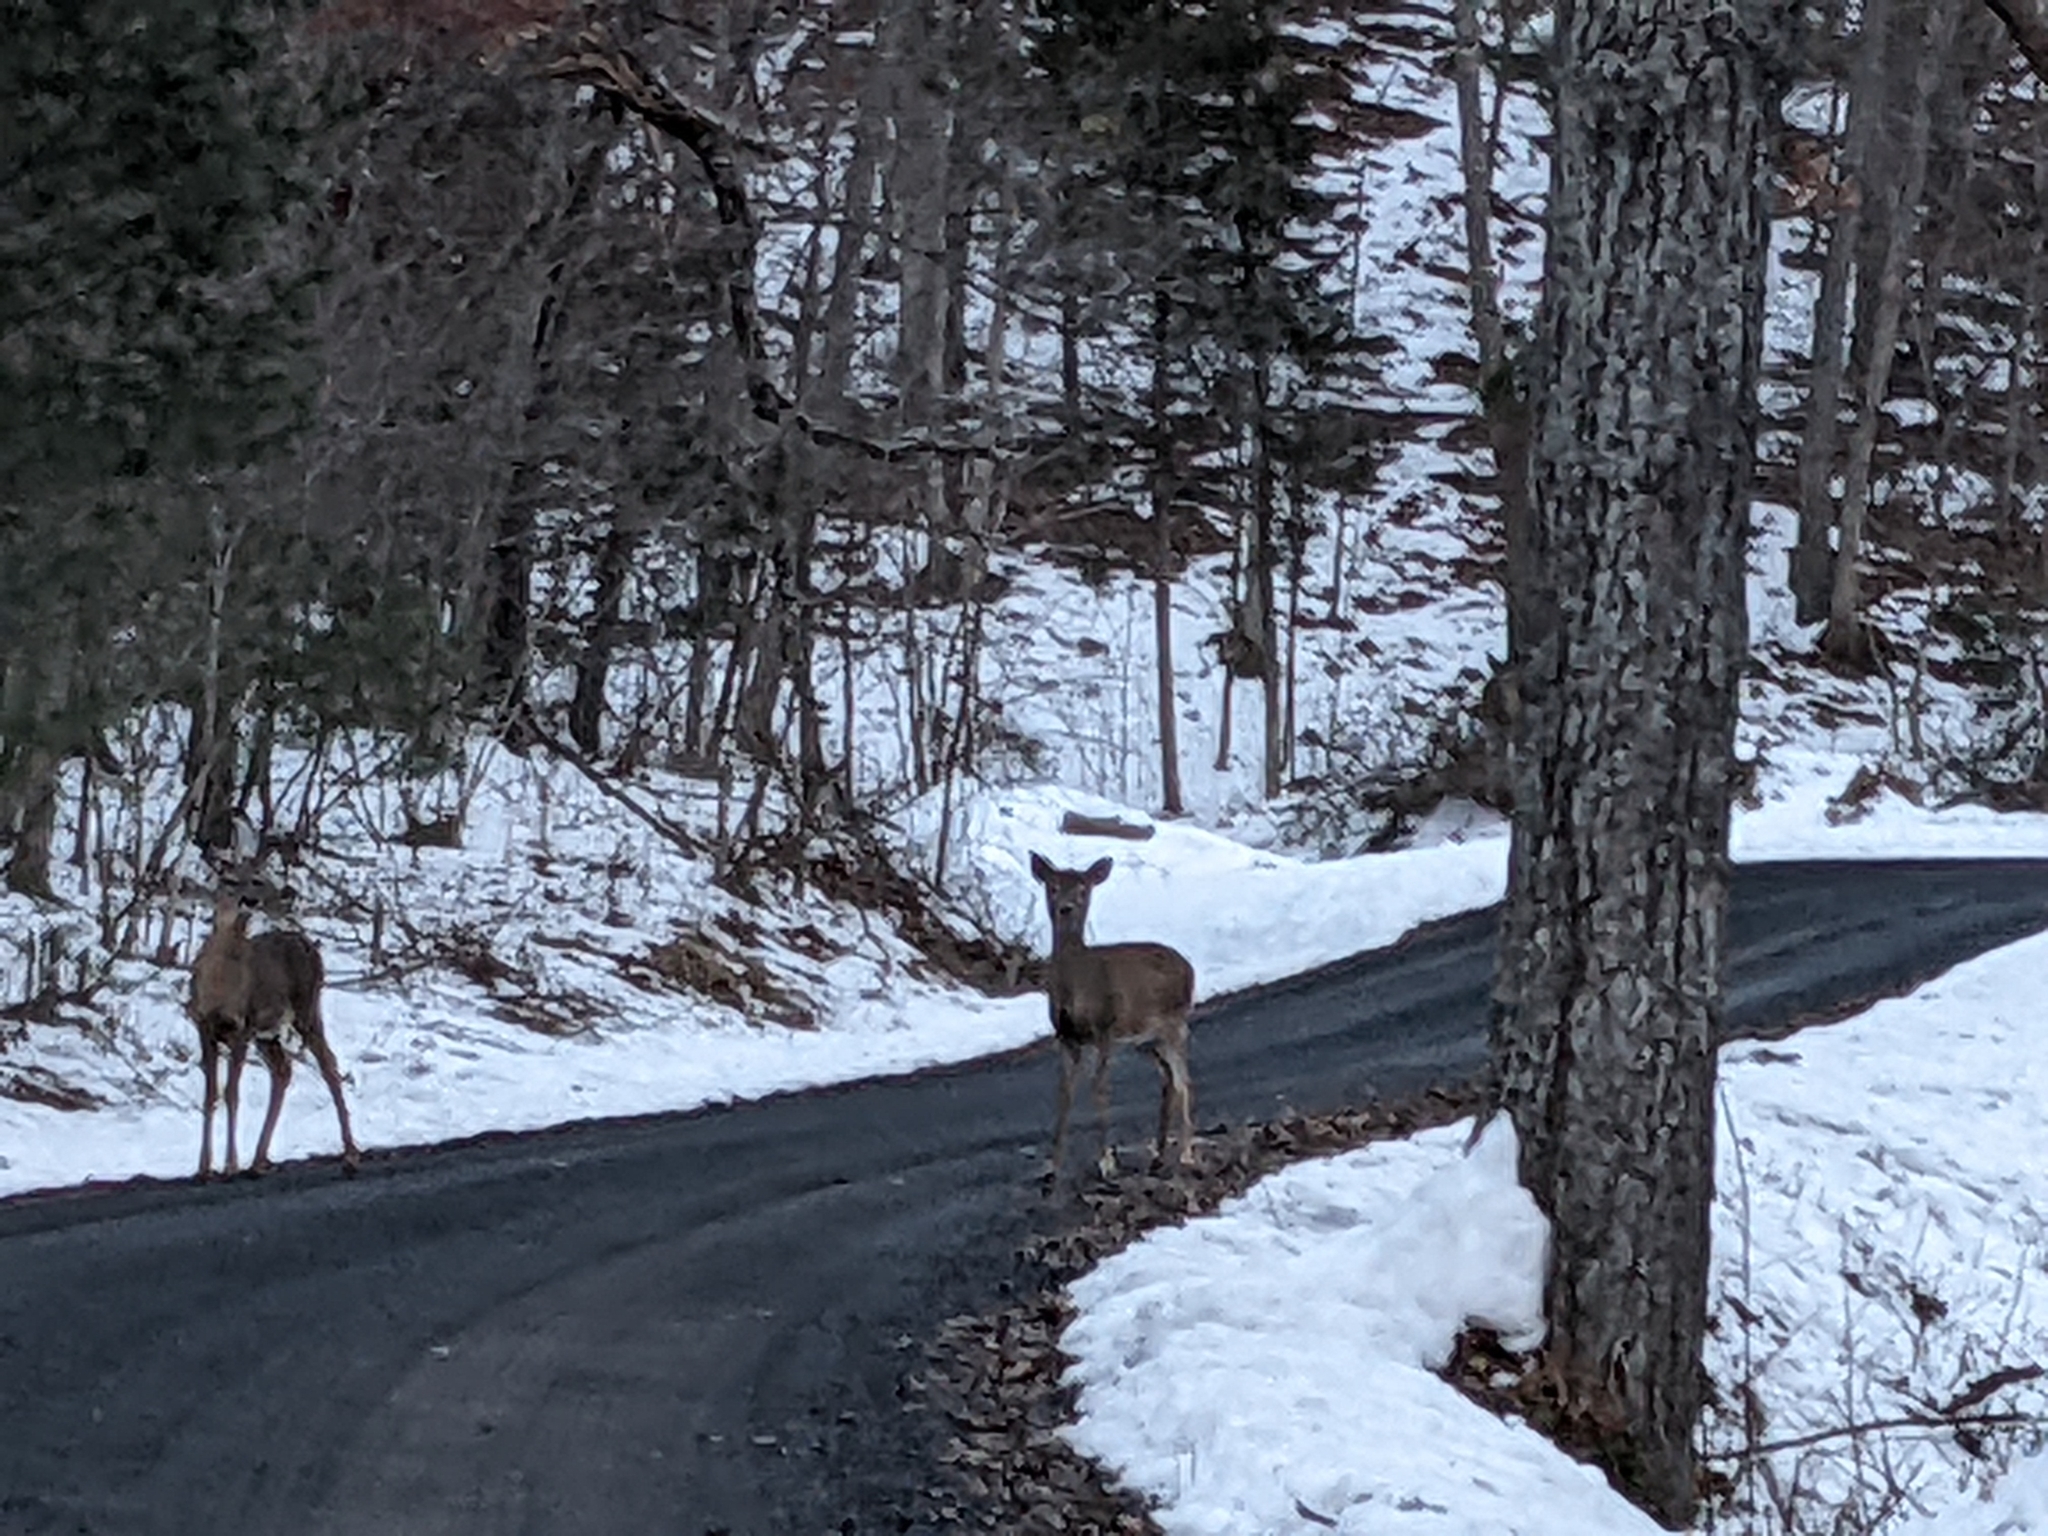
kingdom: Animalia
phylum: Chordata
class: Mammalia
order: Artiodactyla
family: Cervidae
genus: Odocoileus
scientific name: Odocoileus virginianus
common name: White-tailed deer
